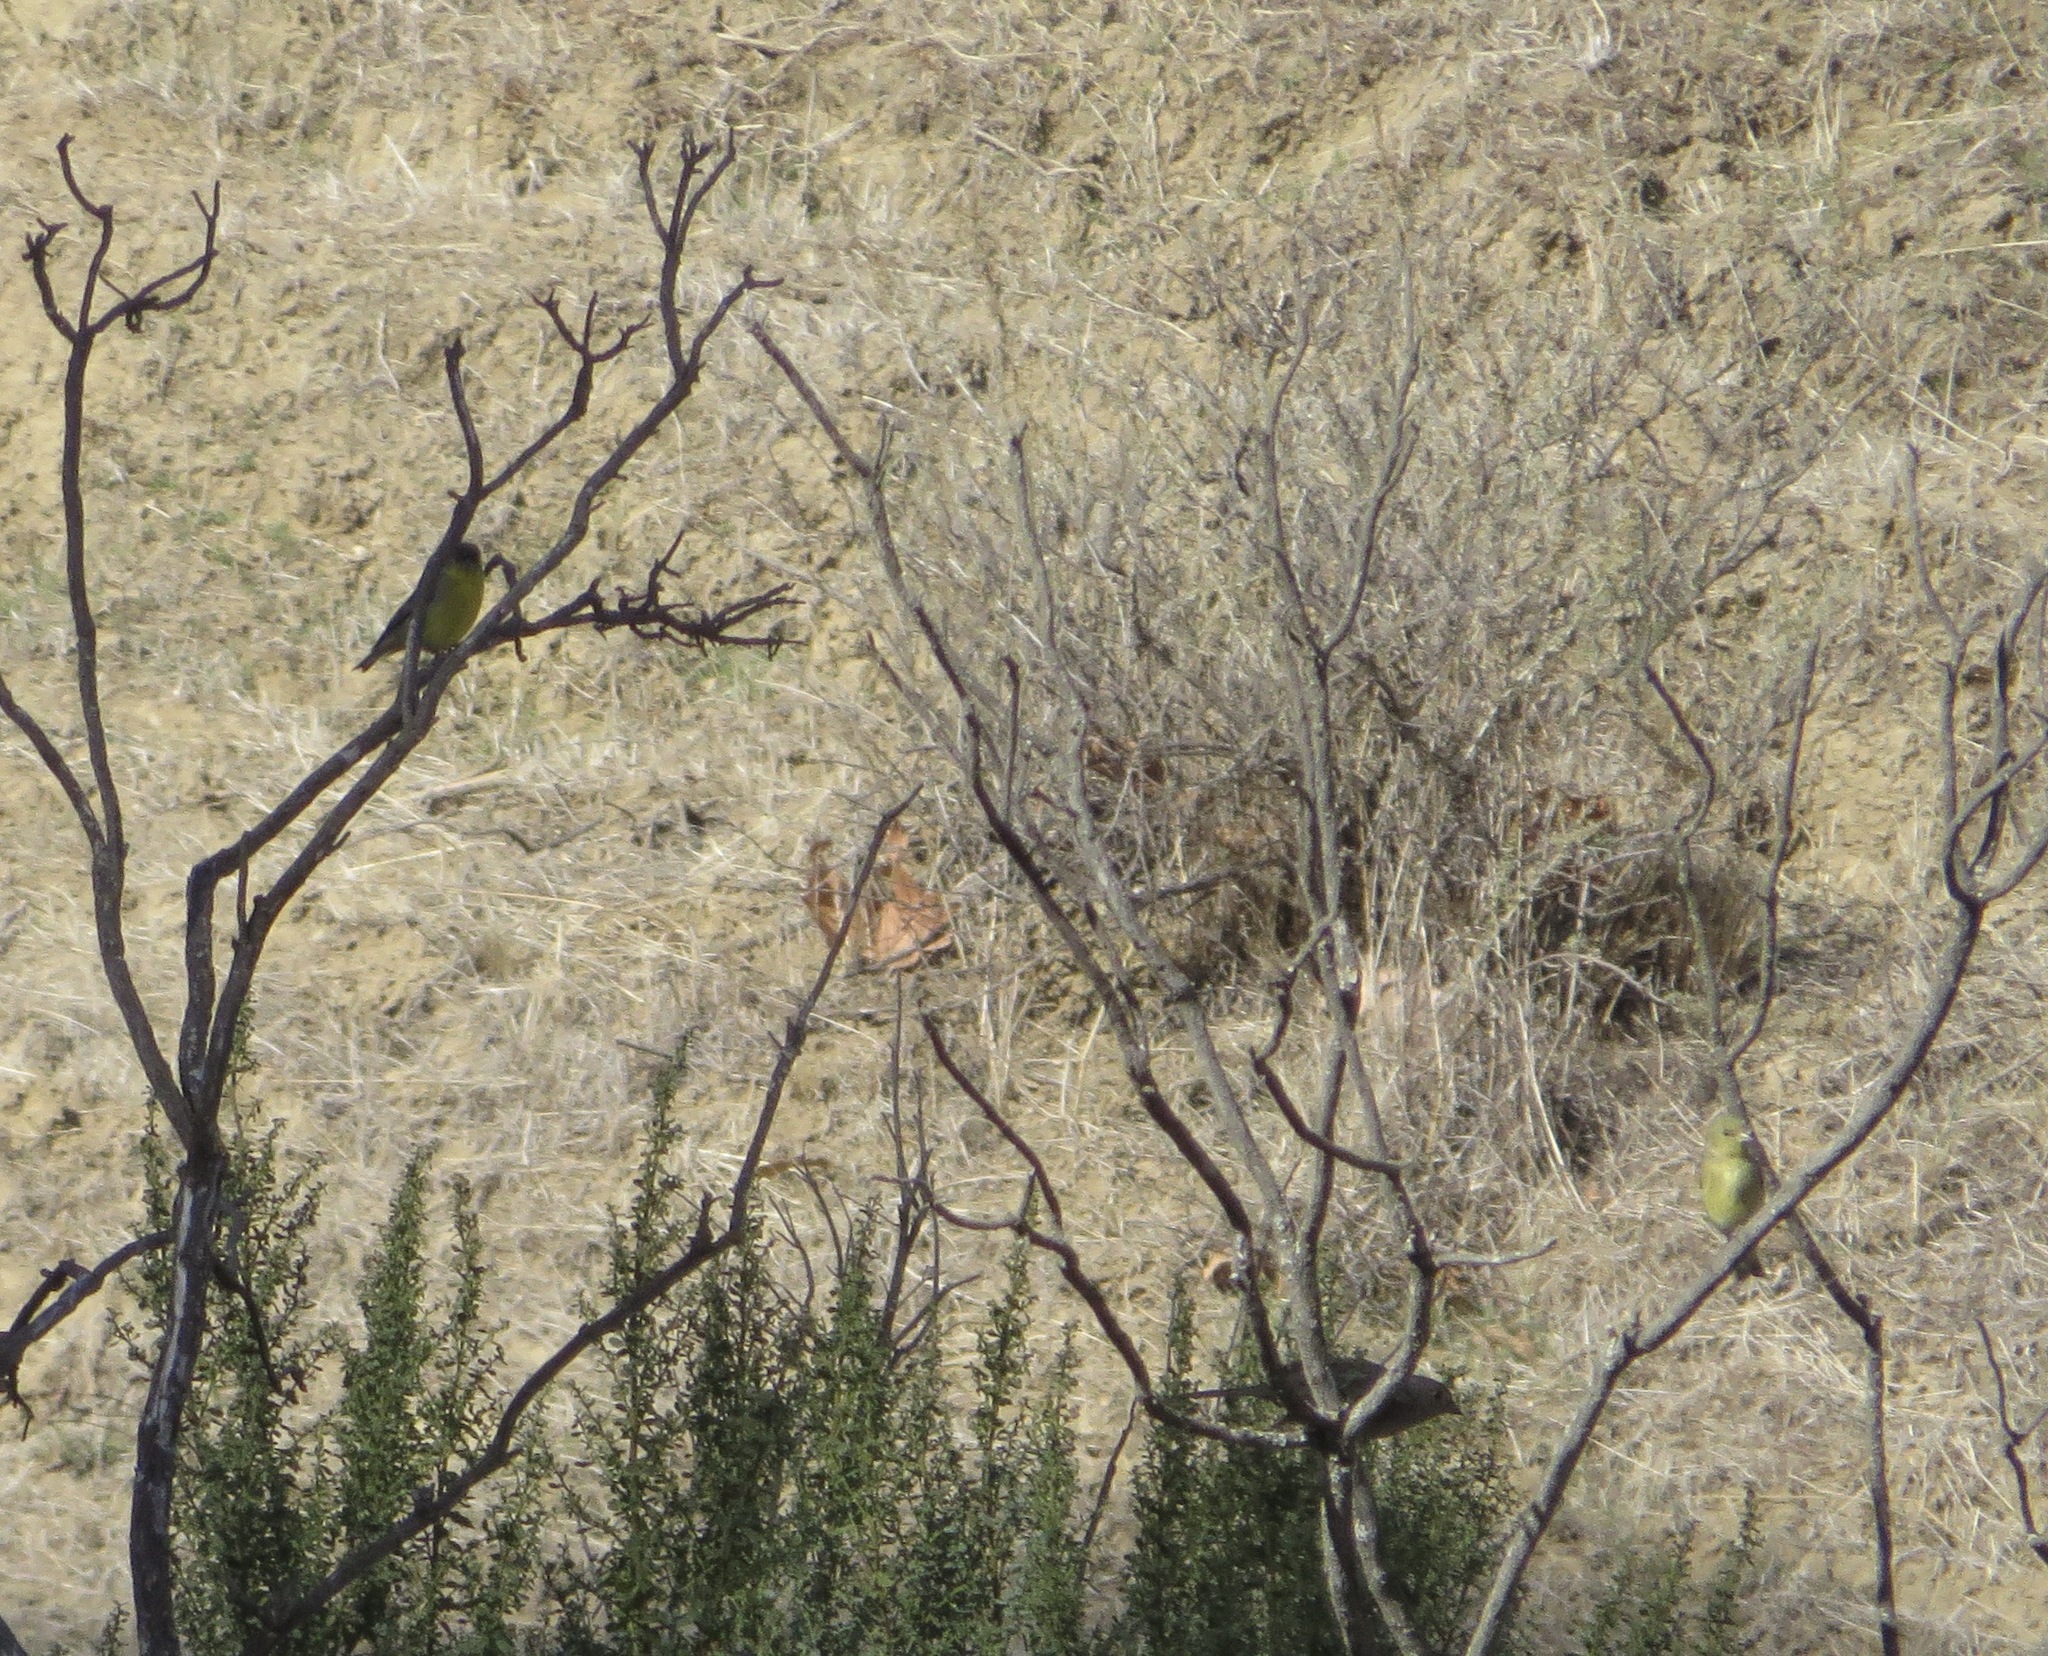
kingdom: Animalia
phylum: Chordata
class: Aves
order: Passeriformes
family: Fringillidae
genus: Spinus
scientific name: Spinus psaltria
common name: Lesser goldfinch
